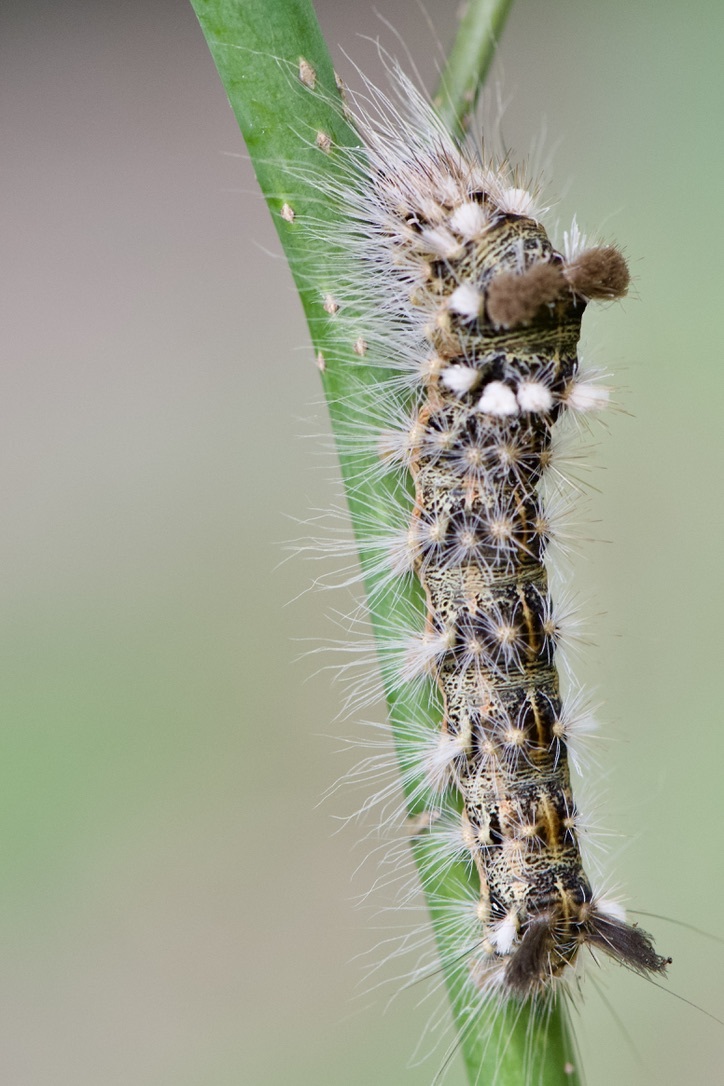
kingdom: Animalia
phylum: Arthropoda
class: Insecta
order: Lepidoptera
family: Noctuidae
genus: Acronicta
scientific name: Acronicta impleta
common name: Powdered dagger
